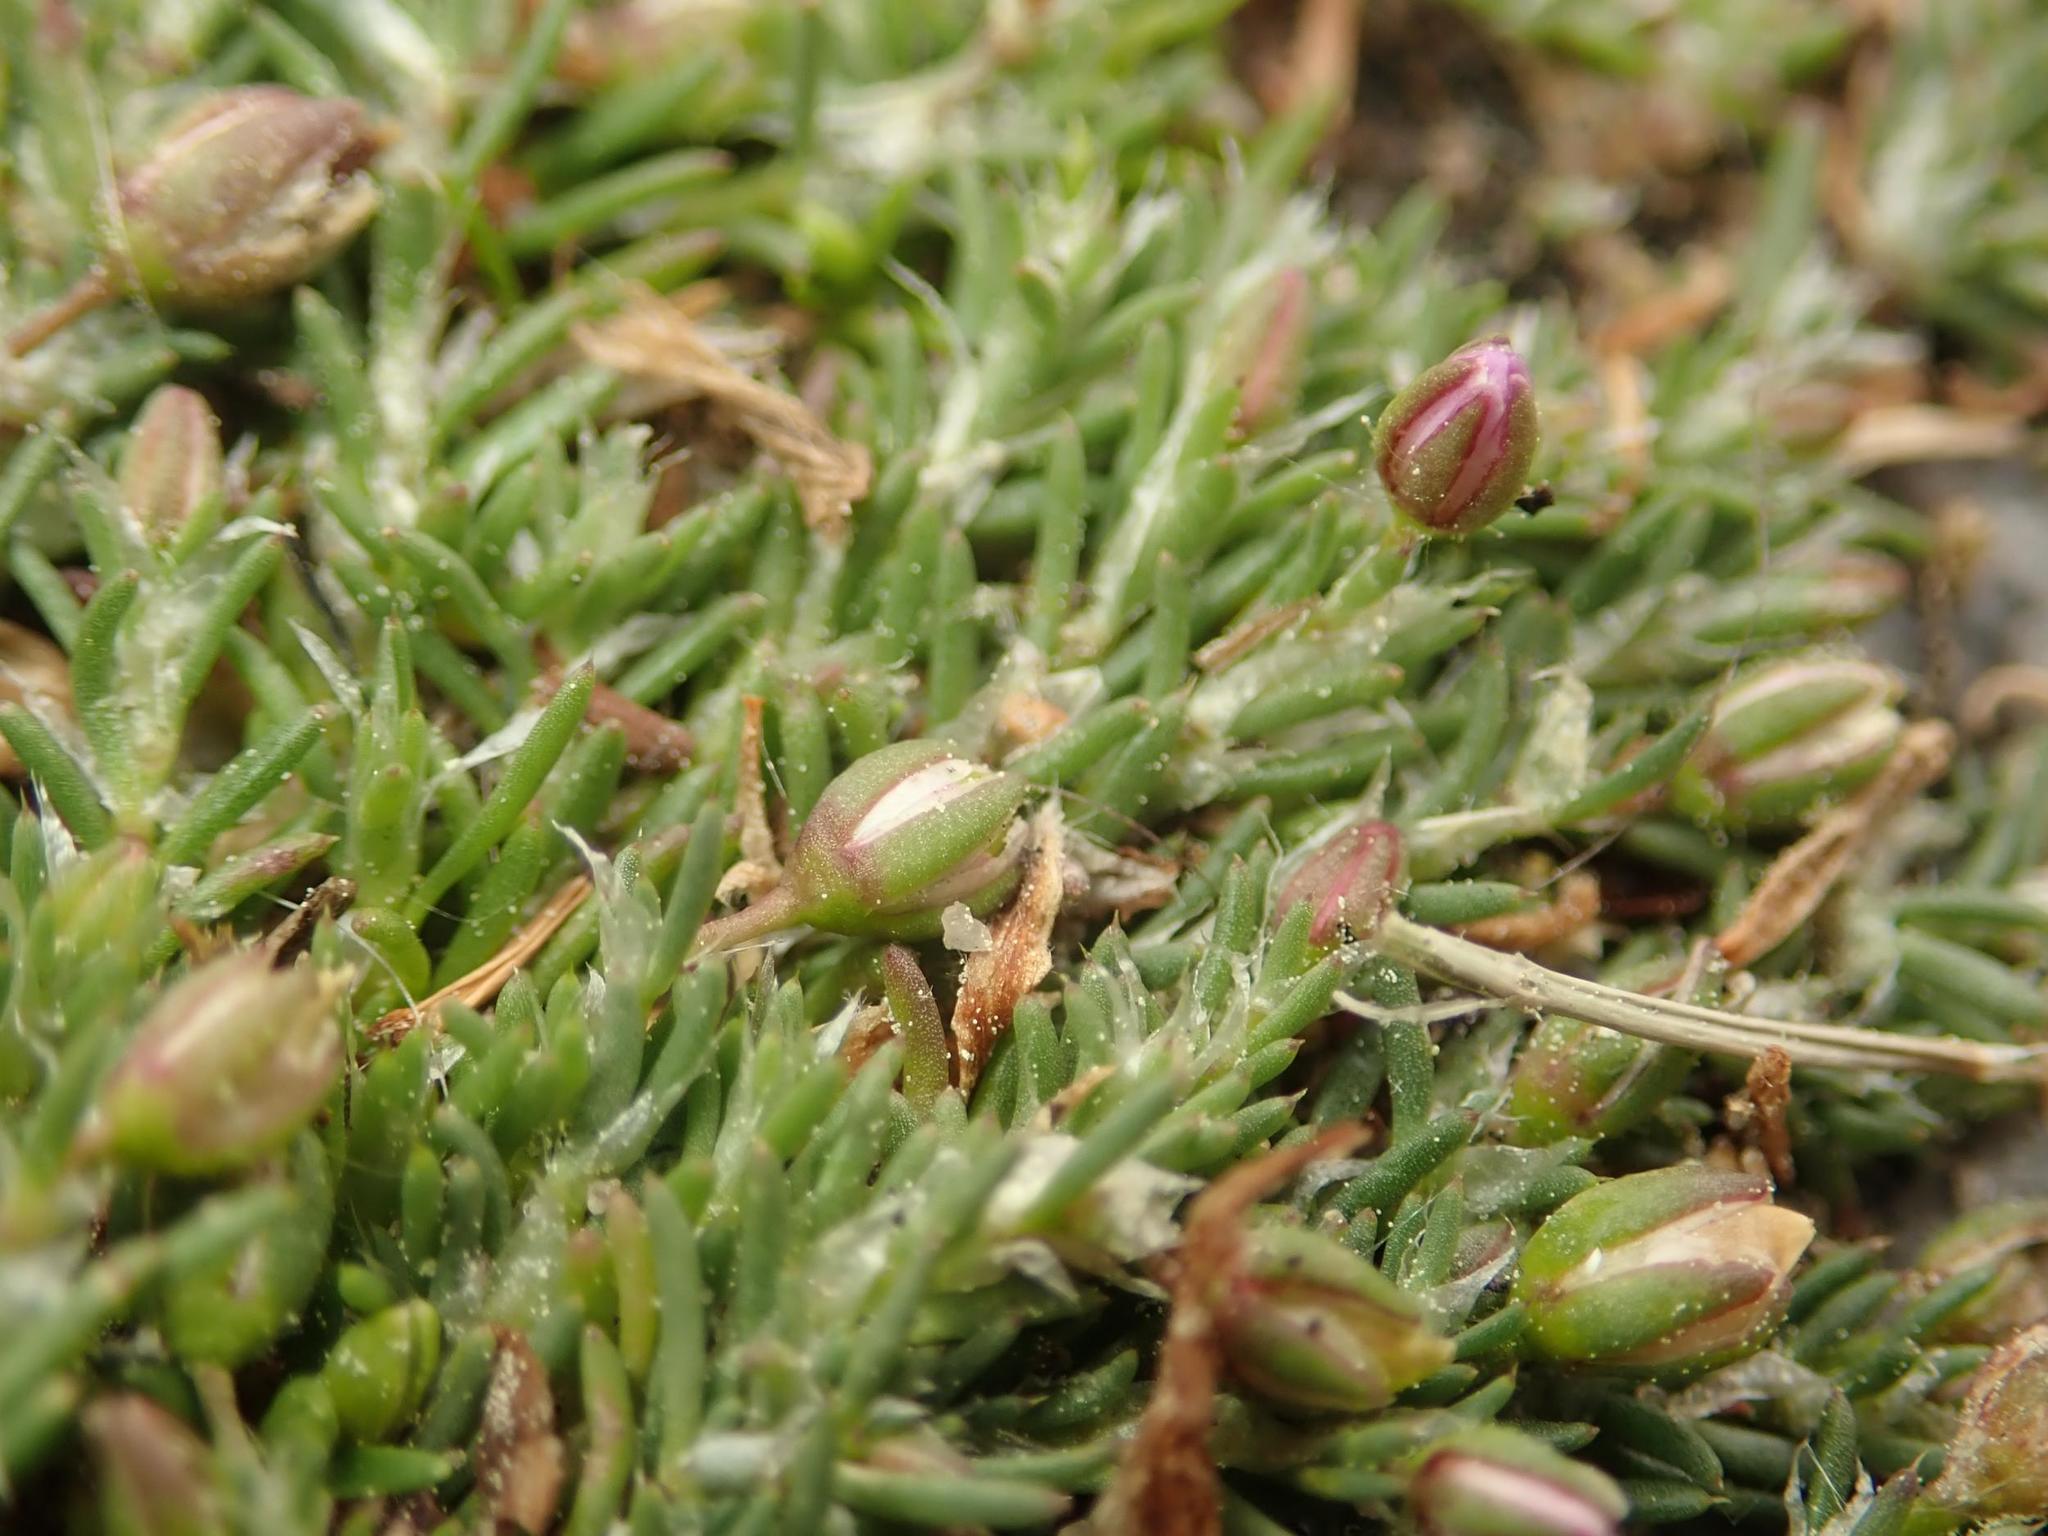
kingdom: Plantae
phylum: Tracheophyta
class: Magnoliopsida
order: Caryophyllales
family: Caryophyllaceae
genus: Spergularia
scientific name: Spergularia rubra
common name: Red sand-spurrey
